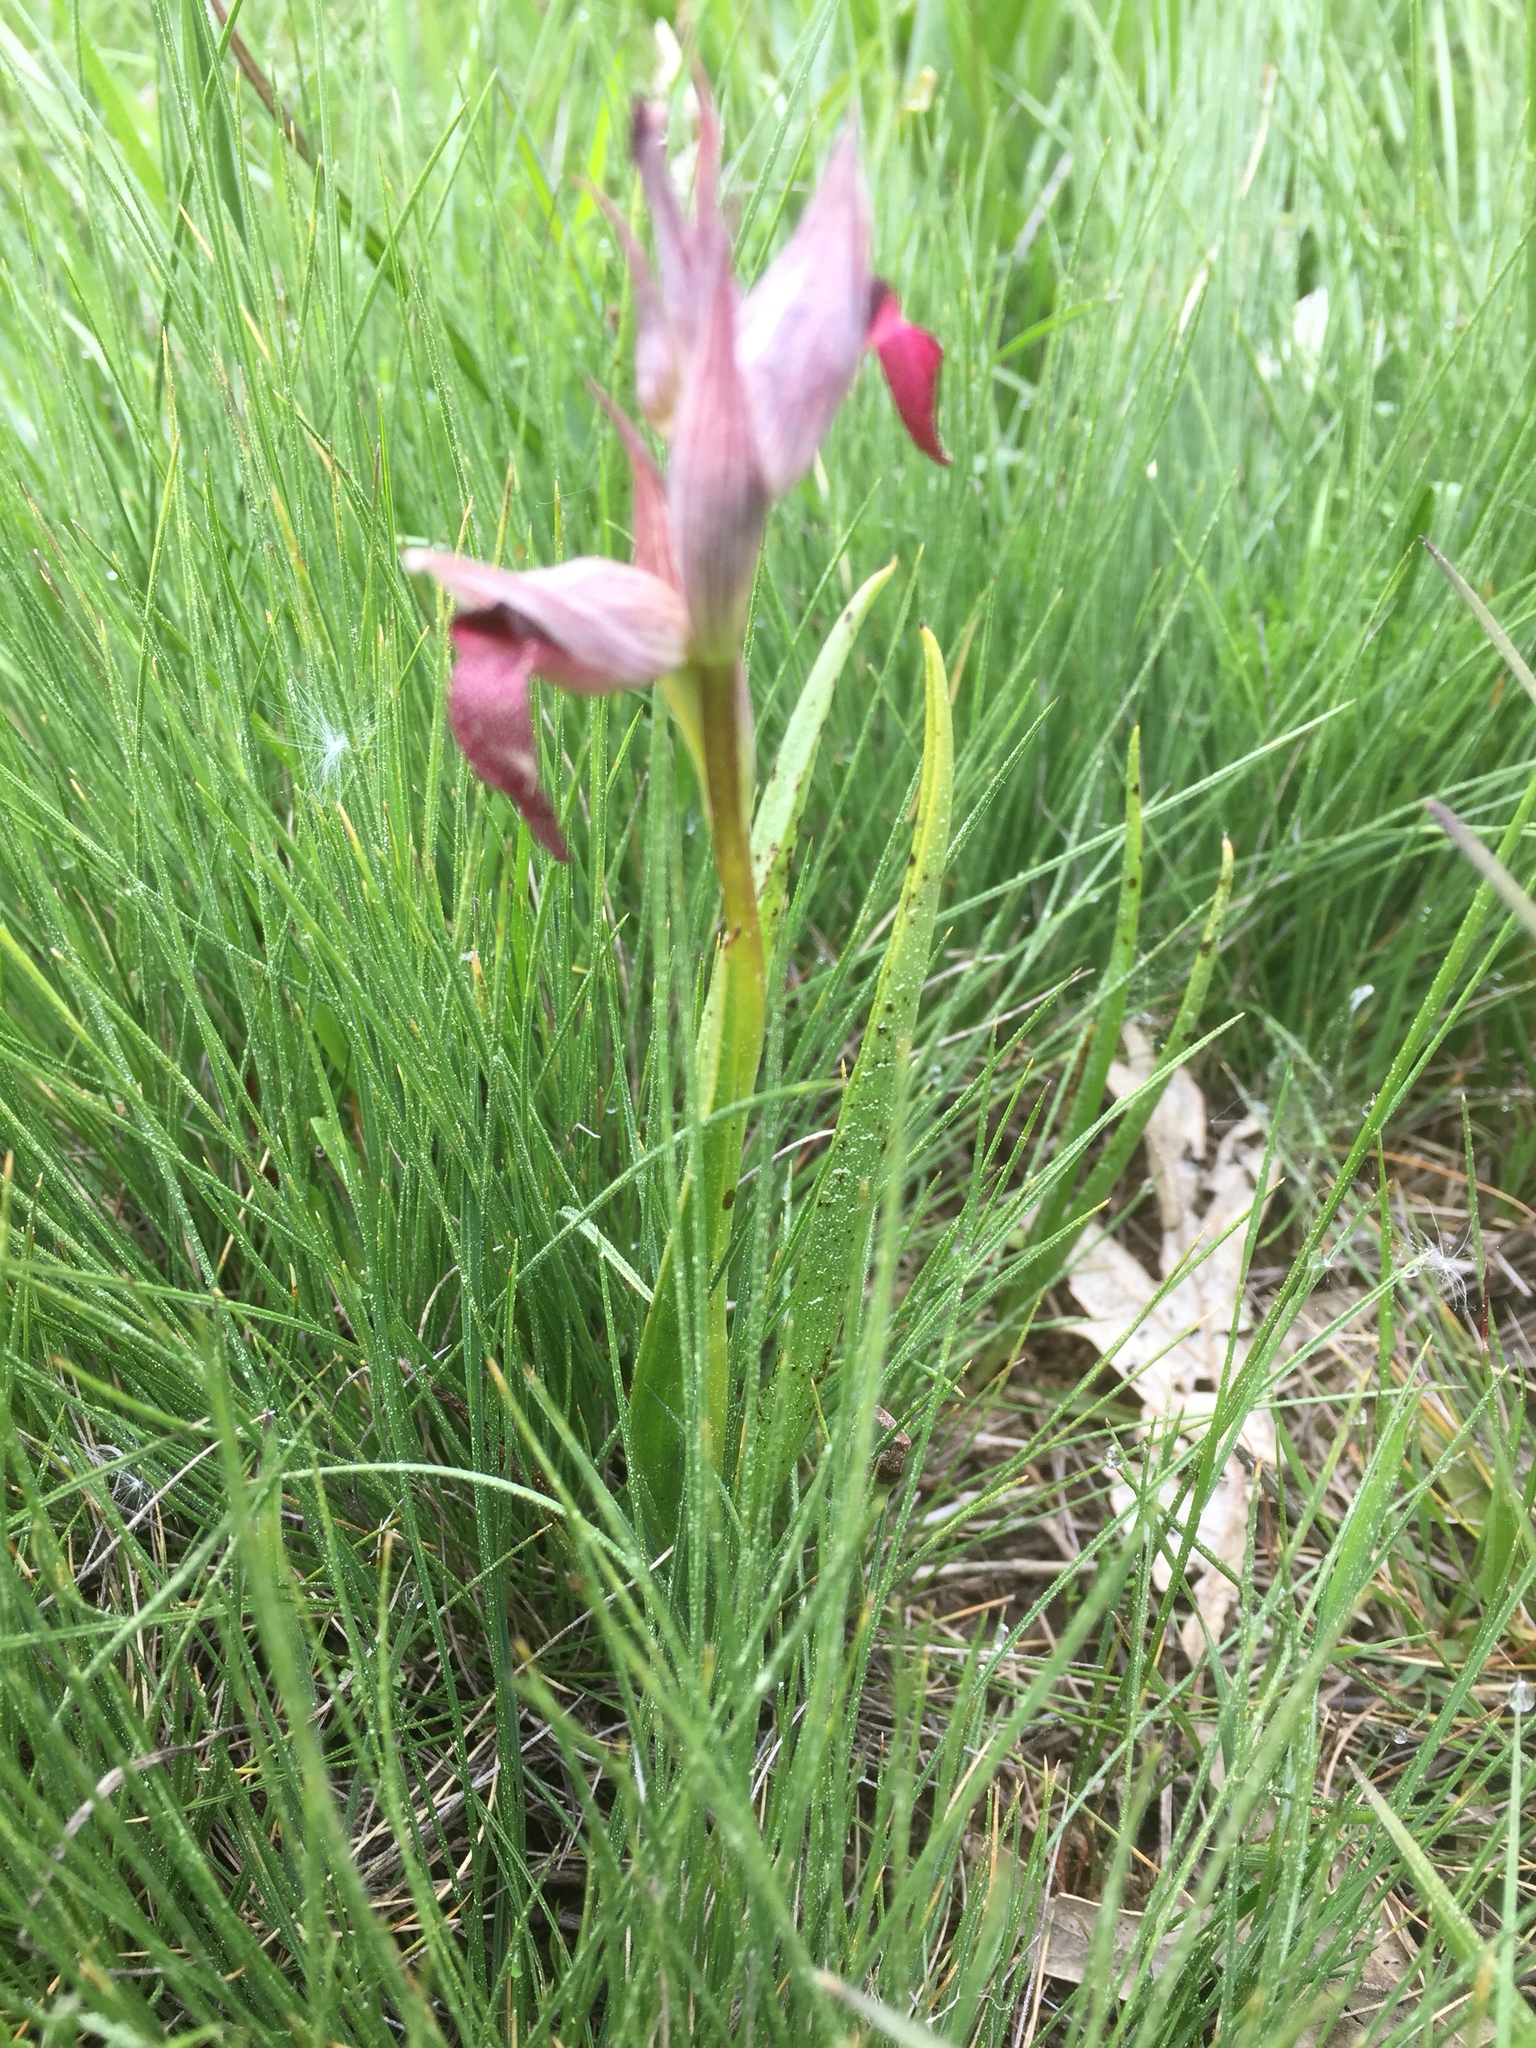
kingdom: Plantae
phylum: Tracheophyta
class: Liliopsida
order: Asparagales
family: Orchidaceae
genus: Serapias
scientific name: Serapias lingua
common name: Tongue-orchid
